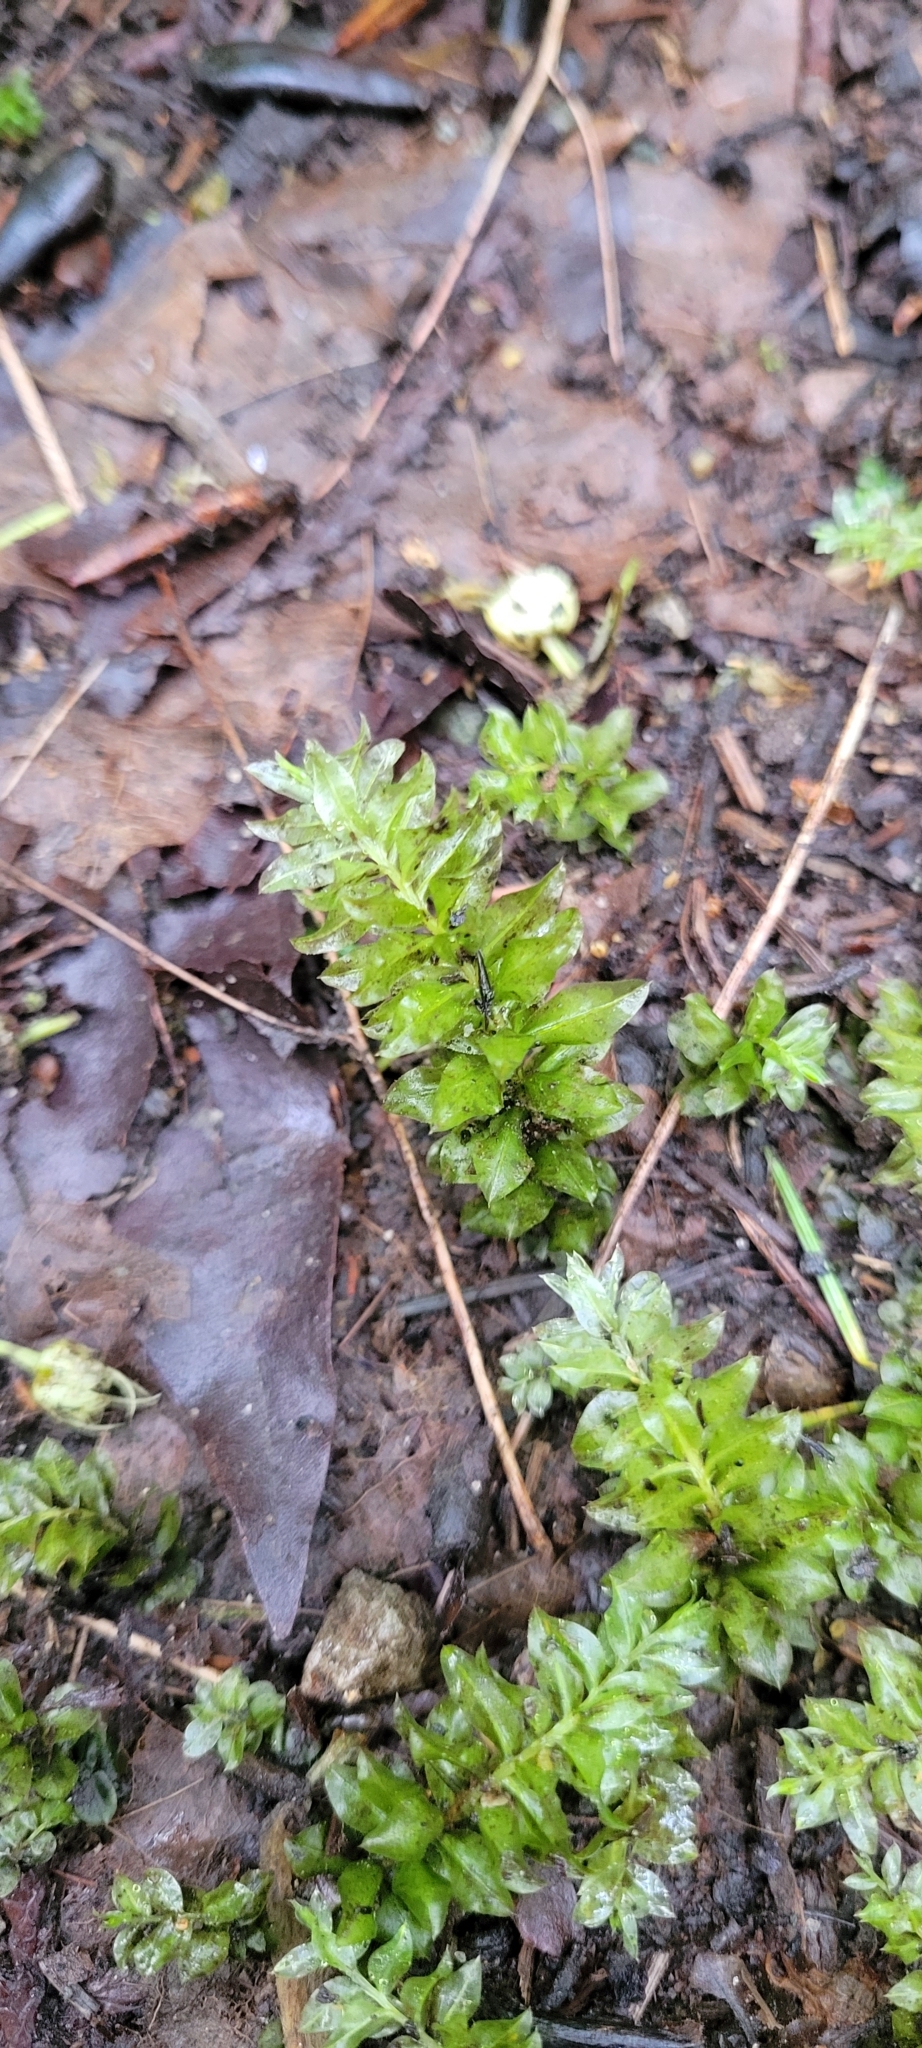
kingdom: Plantae
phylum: Bryophyta
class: Bryopsida
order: Bryales
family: Mniaceae
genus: Plagiomnium
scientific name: Plagiomnium insigne
